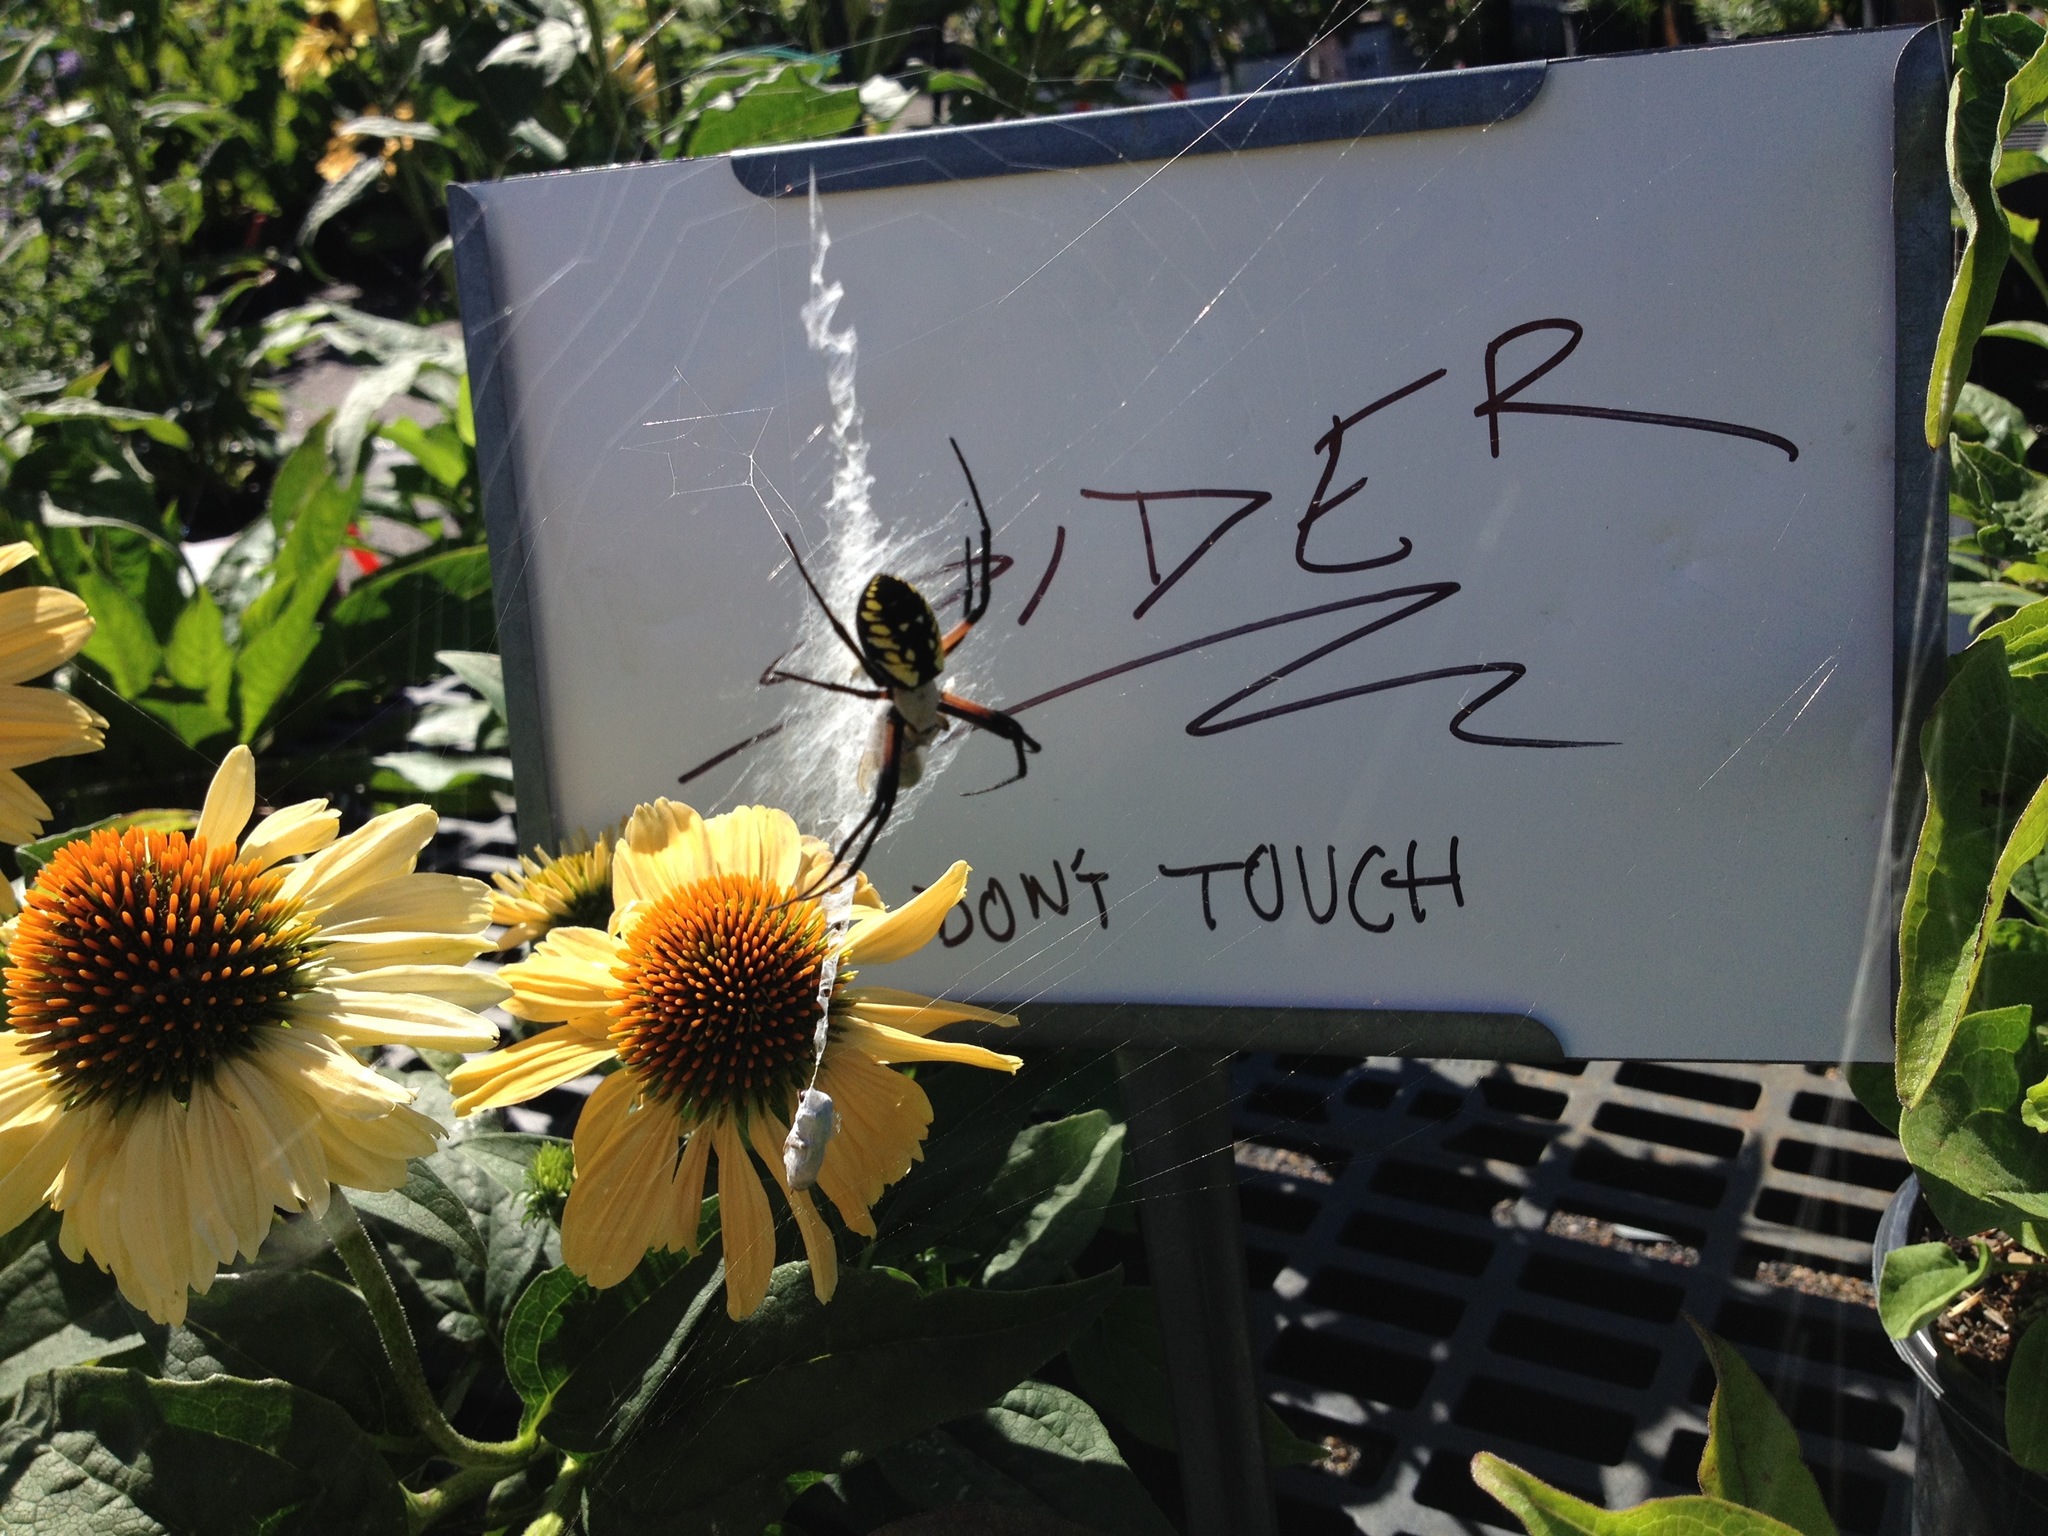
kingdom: Animalia
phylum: Arthropoda
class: Arachnida
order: Araneae
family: Araneidae
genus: Argiope
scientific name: Argiope aurantia
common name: Orb weavers
